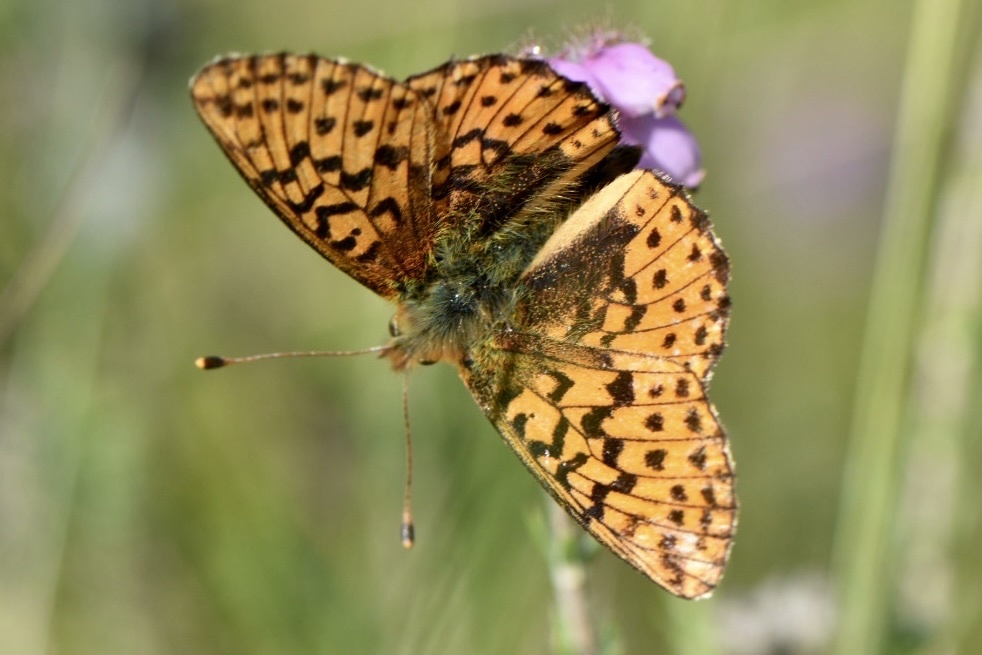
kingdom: Animalia
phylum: Arthropoda
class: Insecta
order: Lepidoptera
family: Nymphalidae
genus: Boloria
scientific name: Boloria aquilonaris
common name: Cranberry fritillary
